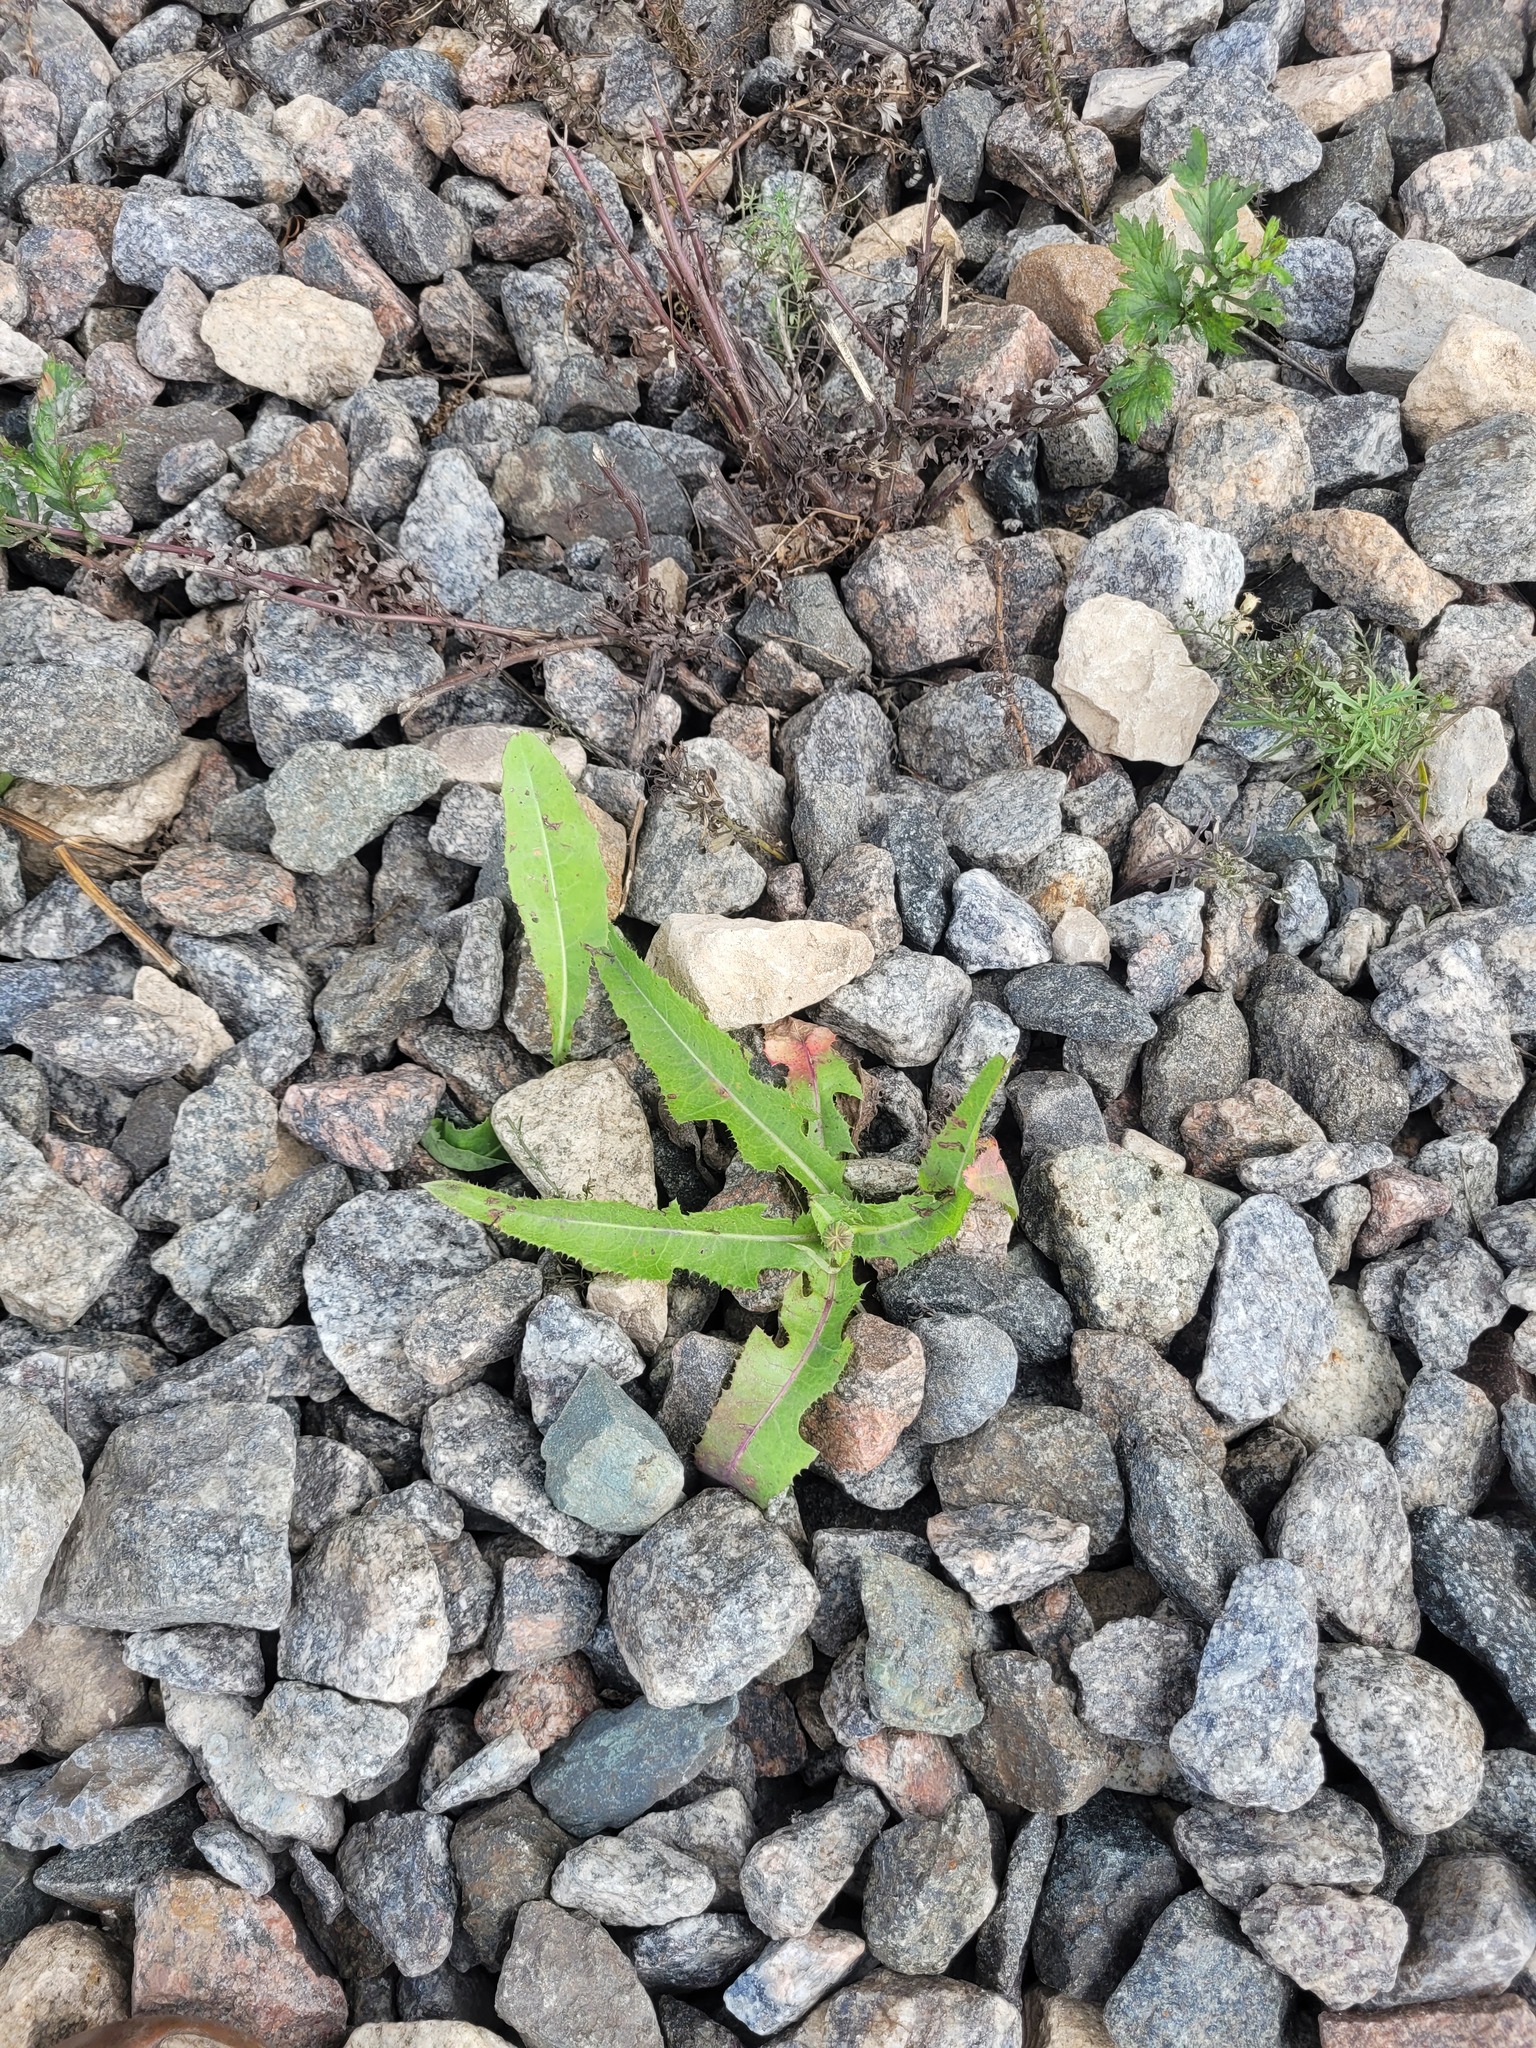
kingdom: Plantae
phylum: Tracheophyta
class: Magnoliopsida
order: Asterales
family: Asteraceae
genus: Sonchus
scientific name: Sonchus arvensis
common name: Perennial sow-thistle
